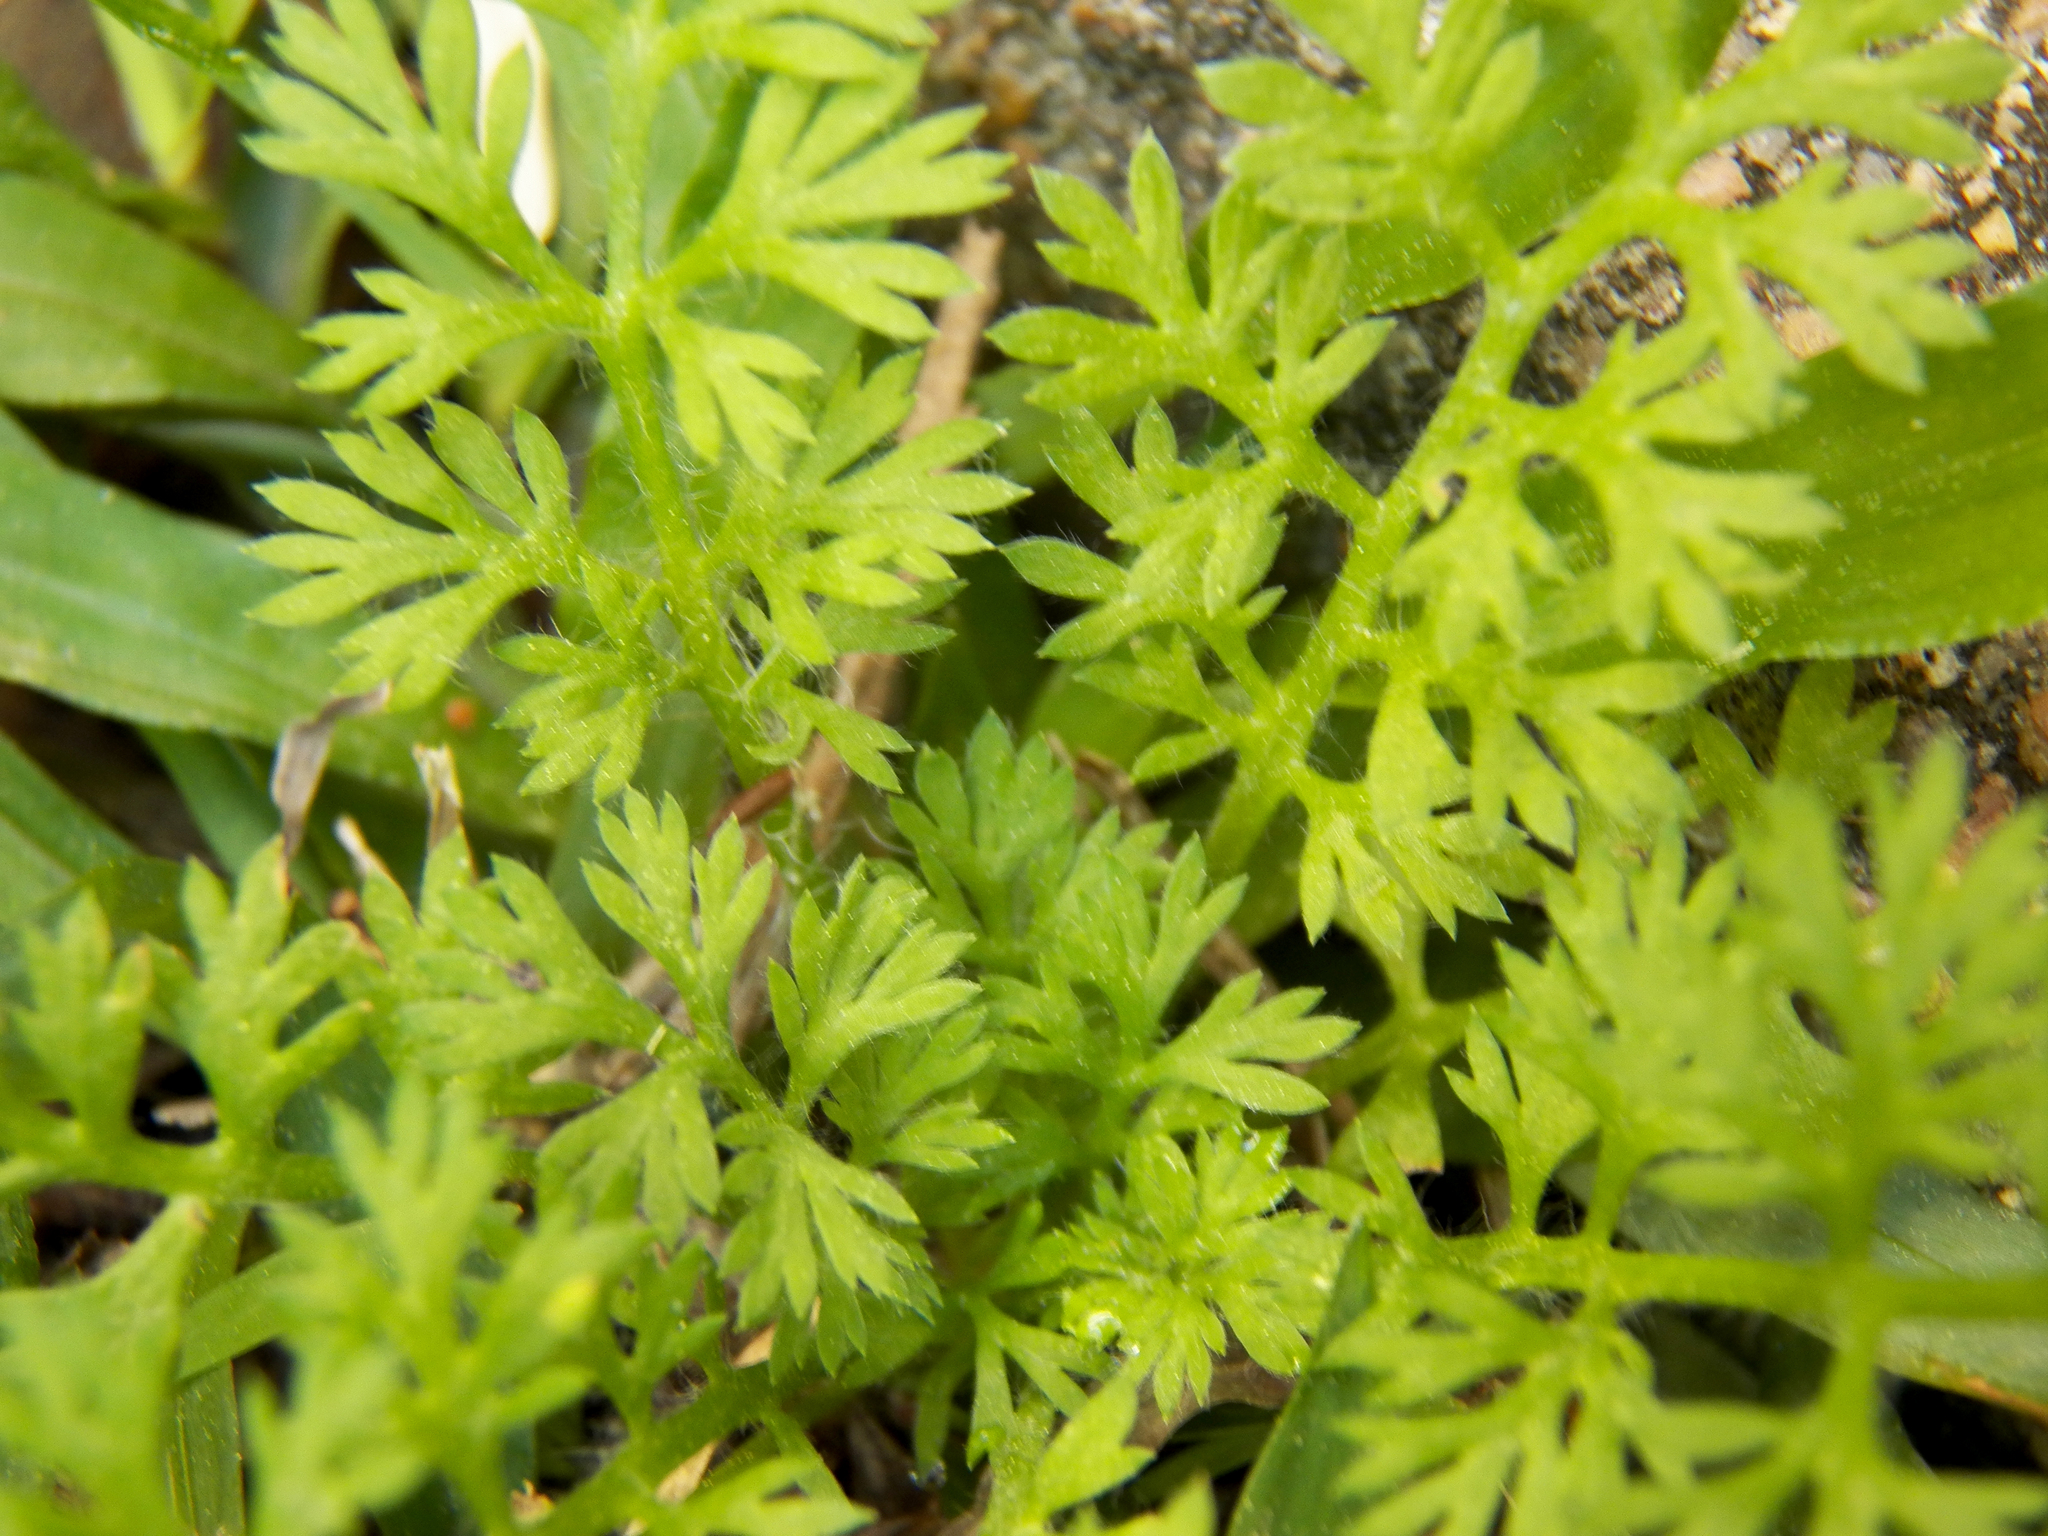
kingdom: Plantae
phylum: Tracheophyta
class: Magnoliopsida
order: Asterales
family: Asteraceae
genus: Soliva
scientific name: Soliva sessilis
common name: Field burrweed
